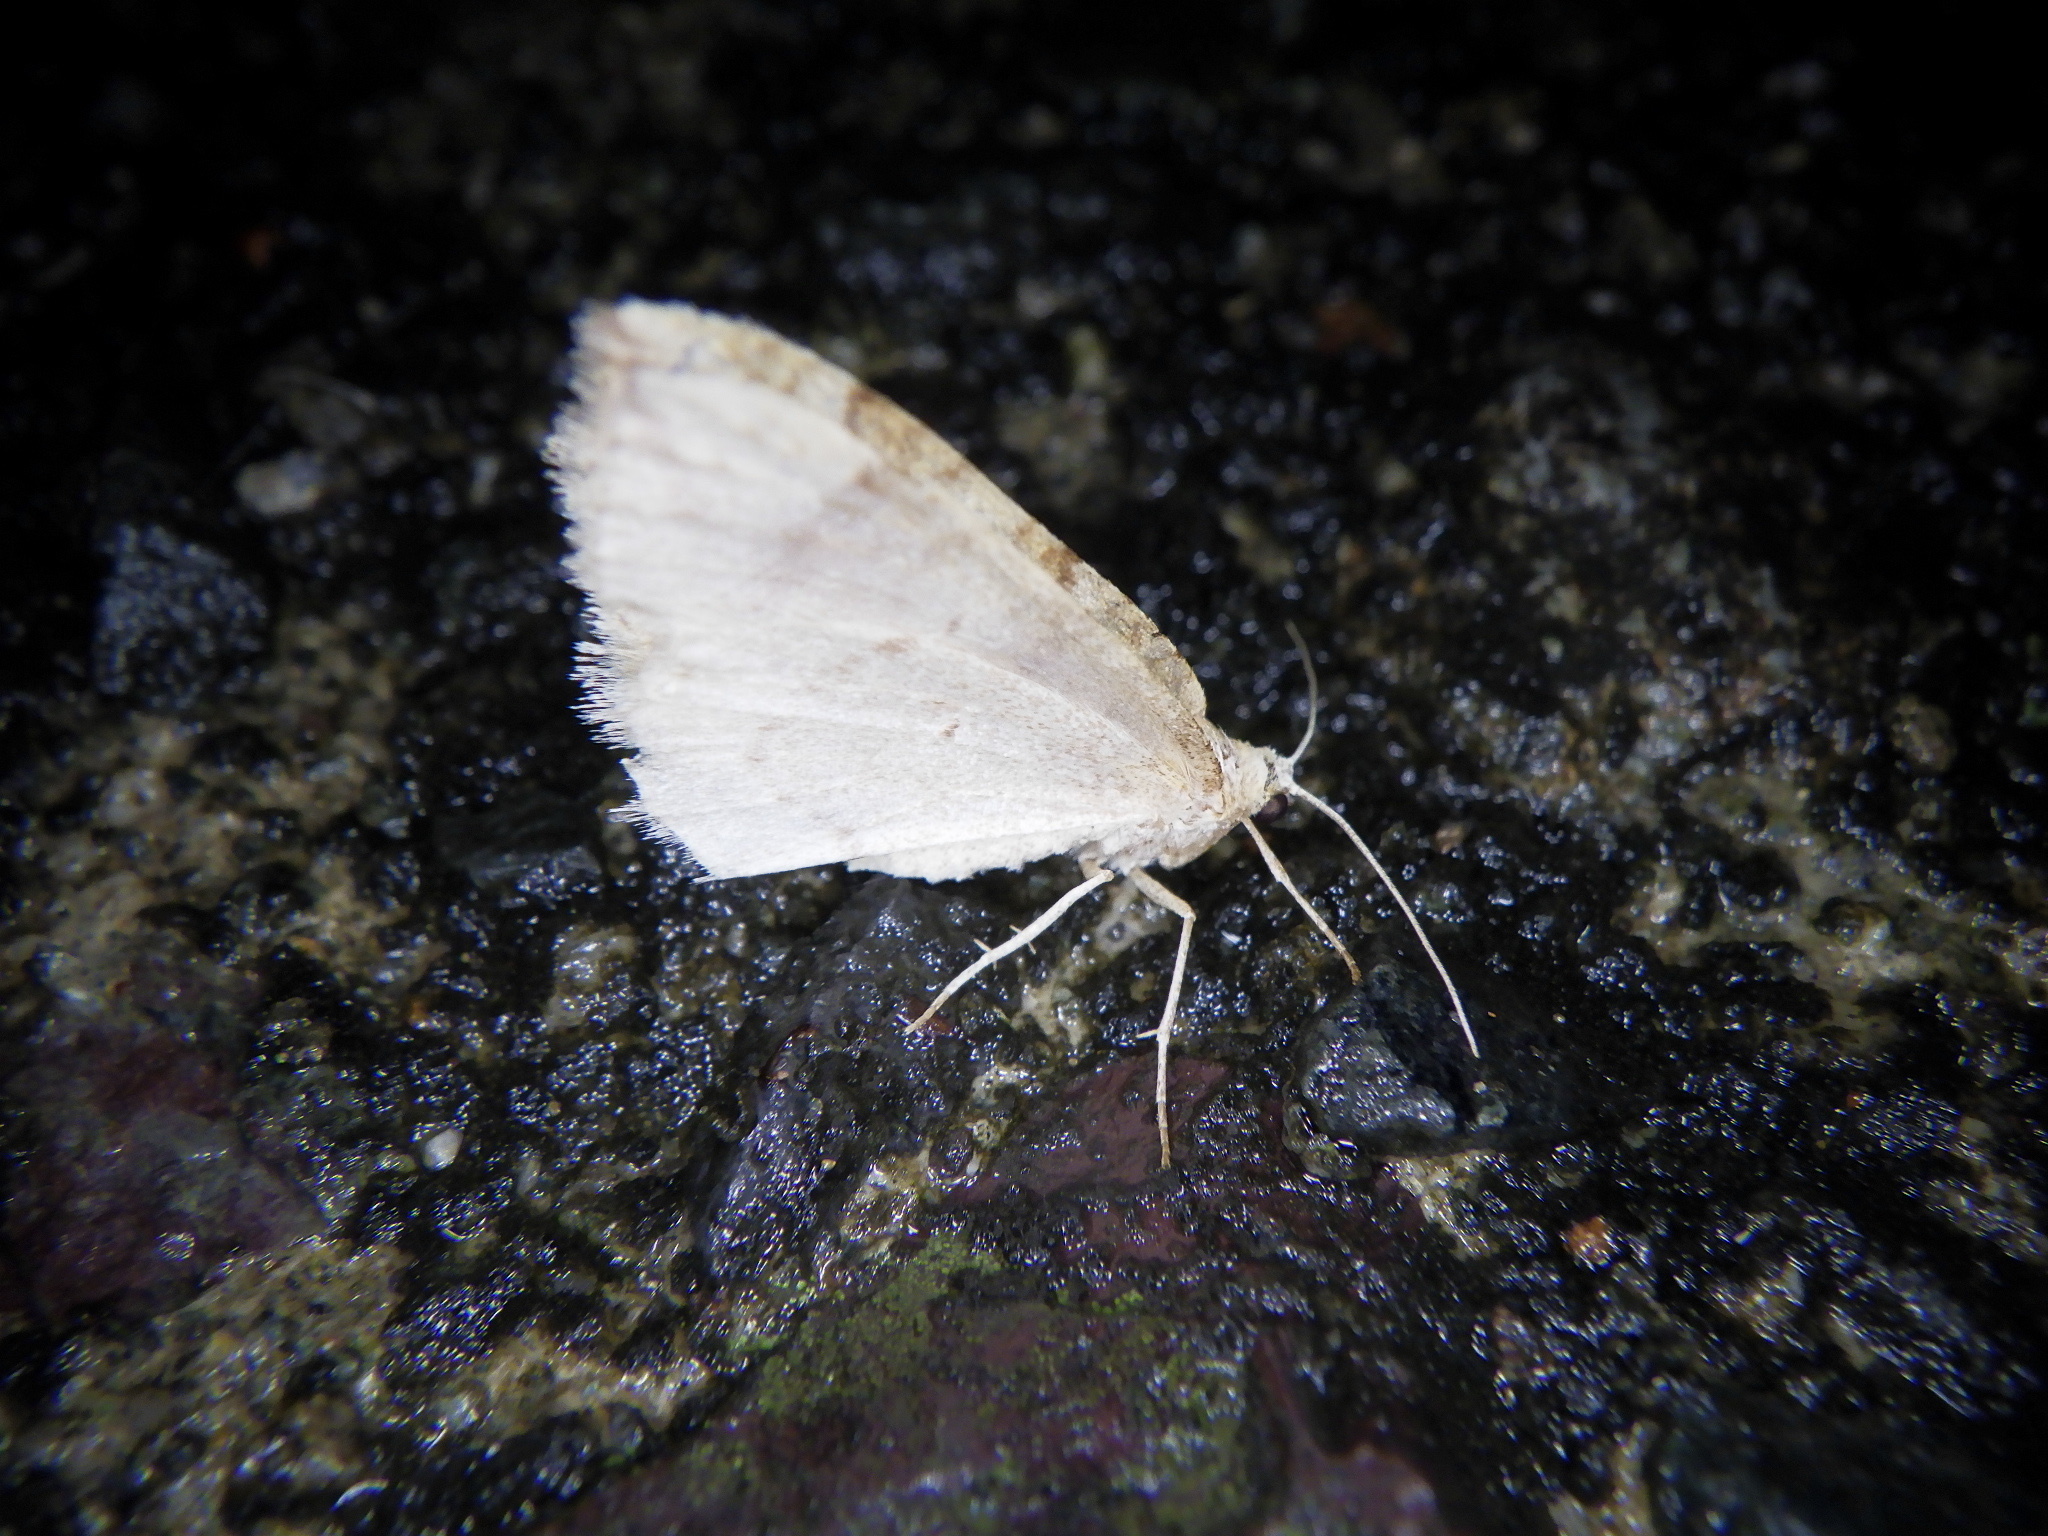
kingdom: Animalia
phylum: Arthropoda
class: Insecta
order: Lepidoptera
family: Geometridae
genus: Idiotephria
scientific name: Idiotephria evanescens
